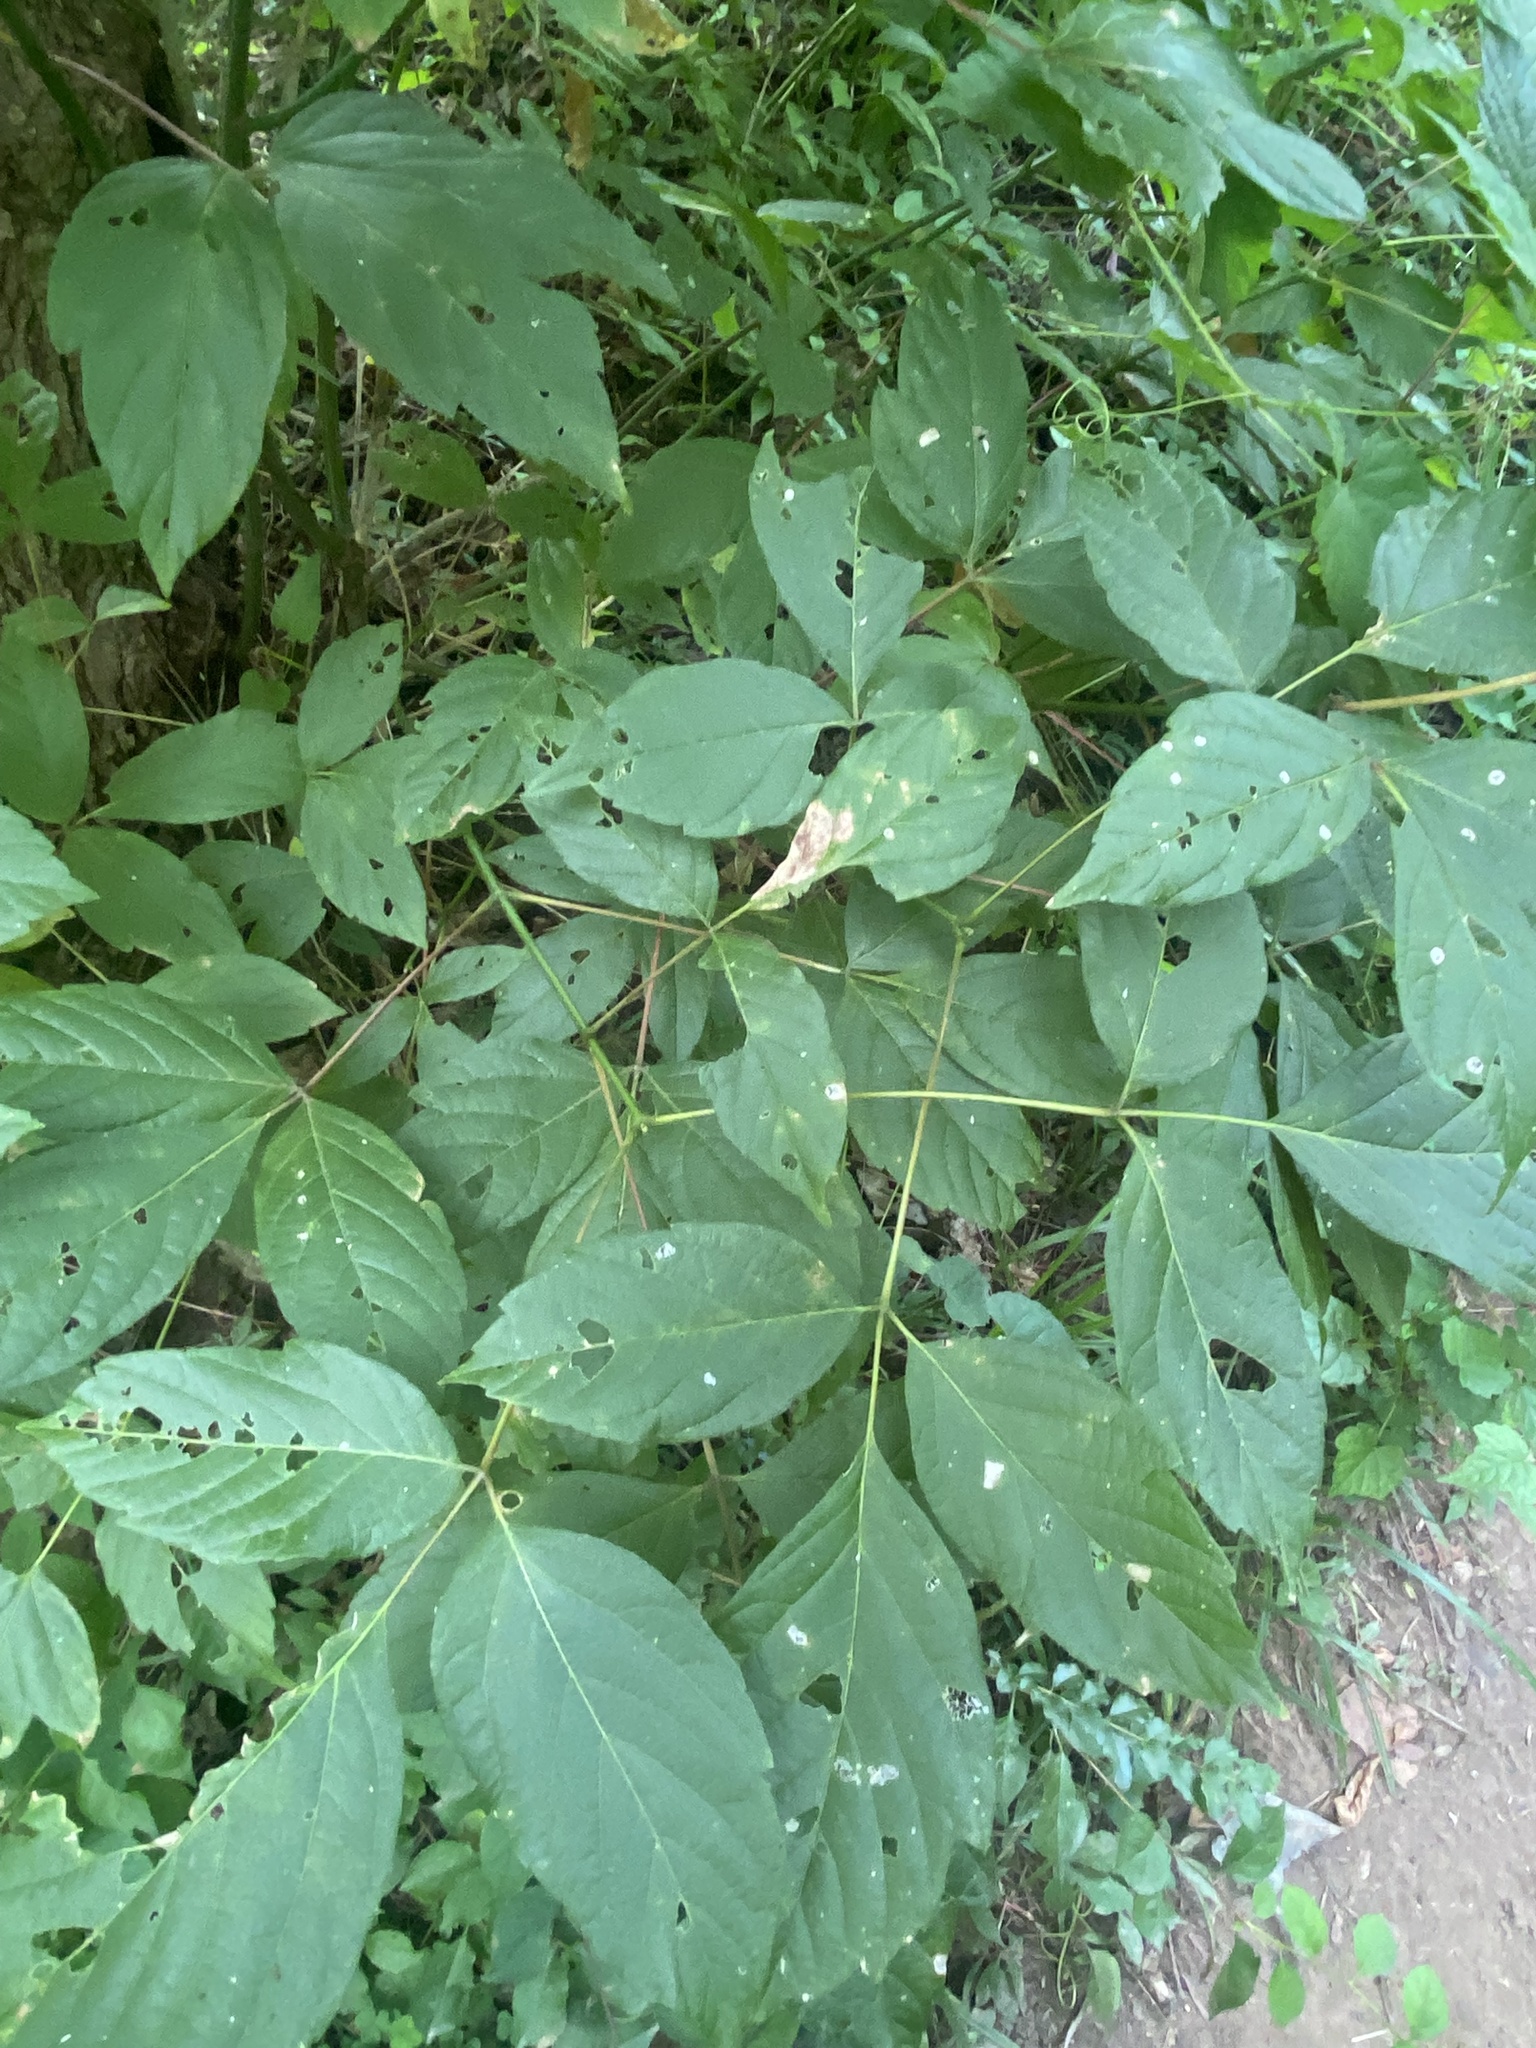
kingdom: Plantae
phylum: Tracheophyta
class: Magnoliopsida
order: Sapindales
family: Sapindaceae
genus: Acer
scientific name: Acer negundo
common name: Ashleaf maple
